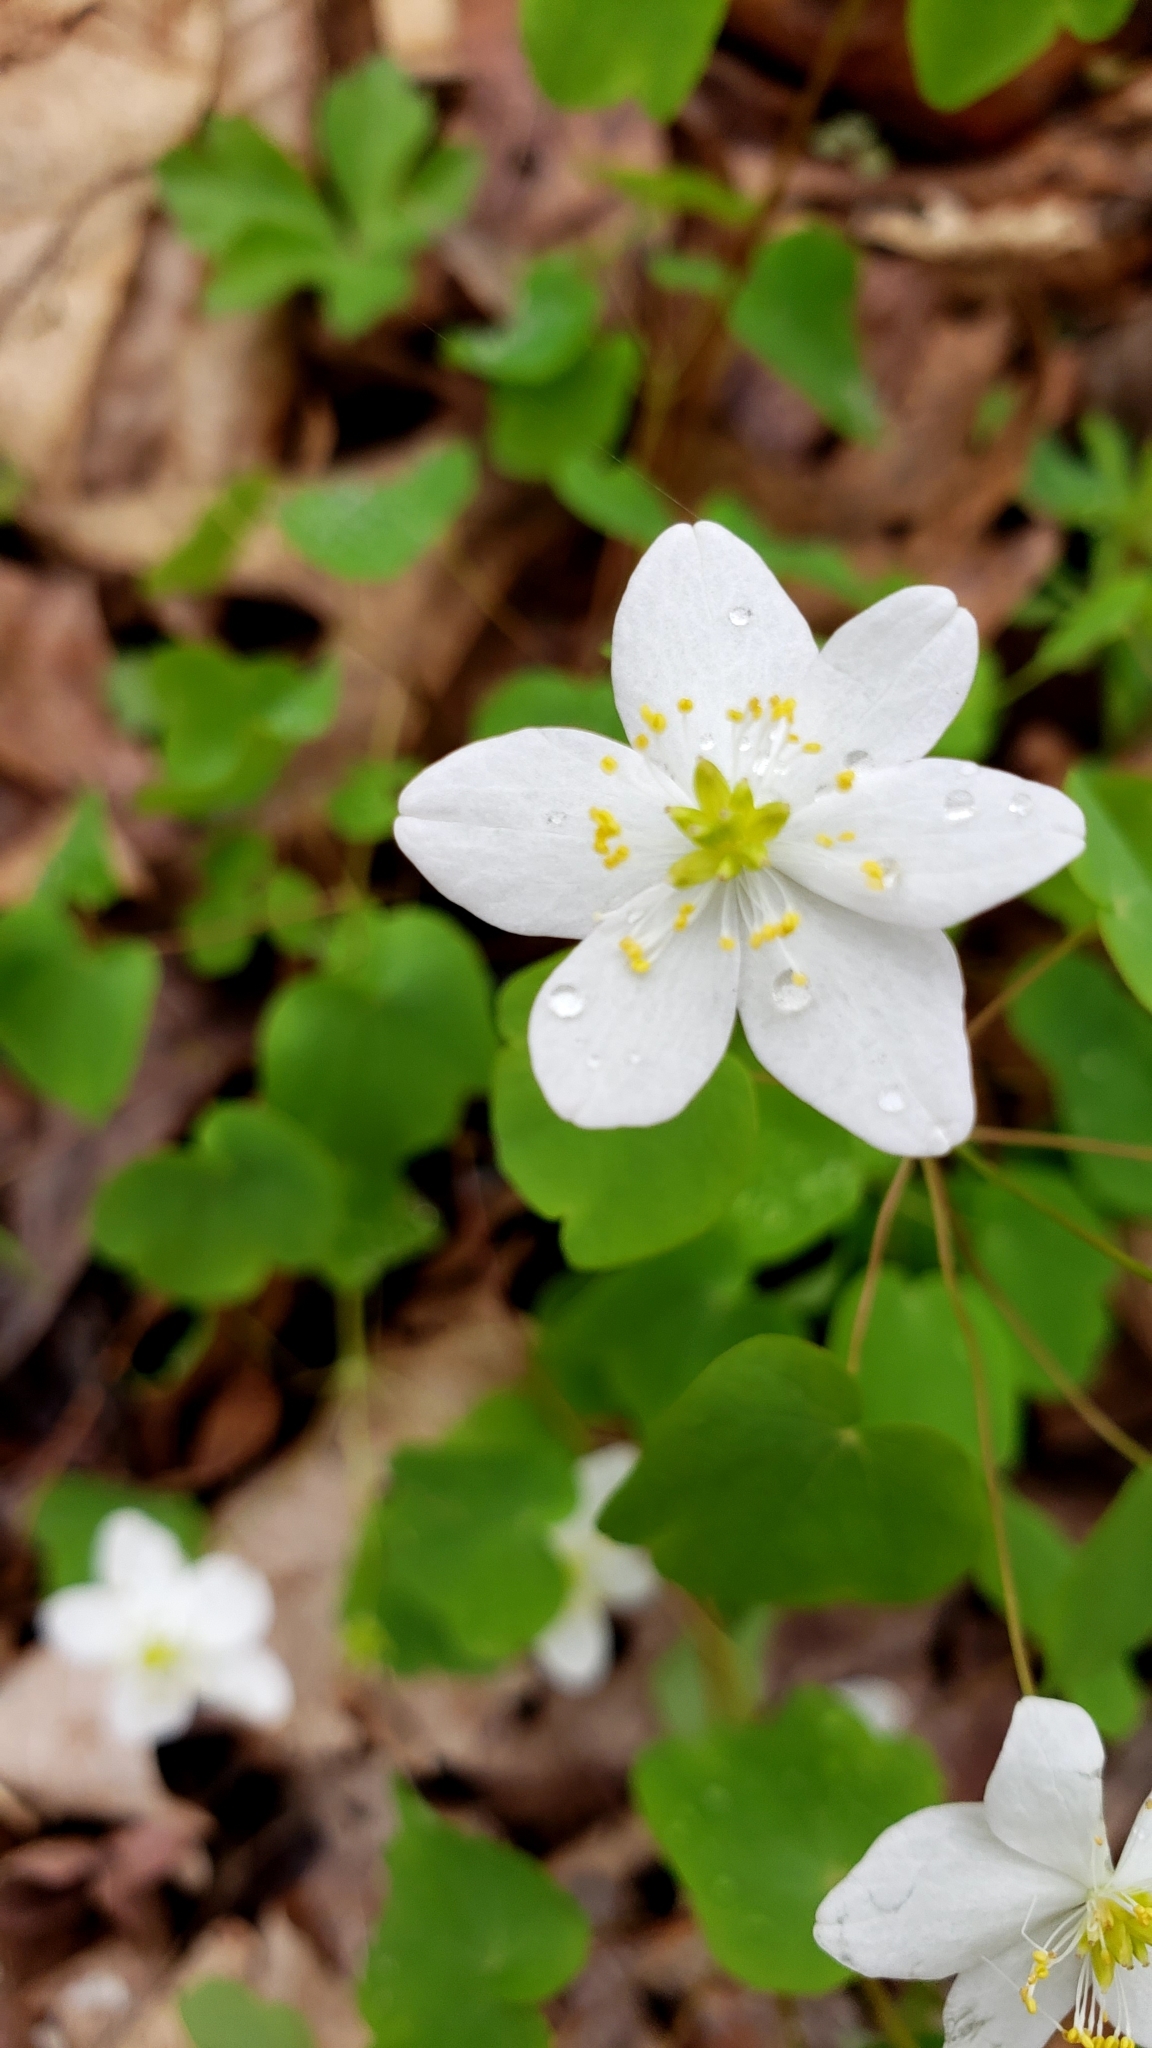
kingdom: Plantae
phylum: Tracheophyta
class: Magnoliopsida
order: Ranunculales
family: Ranunculaceae
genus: Thalictrum
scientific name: Thalictrum thalictroides
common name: Rue-anemone
